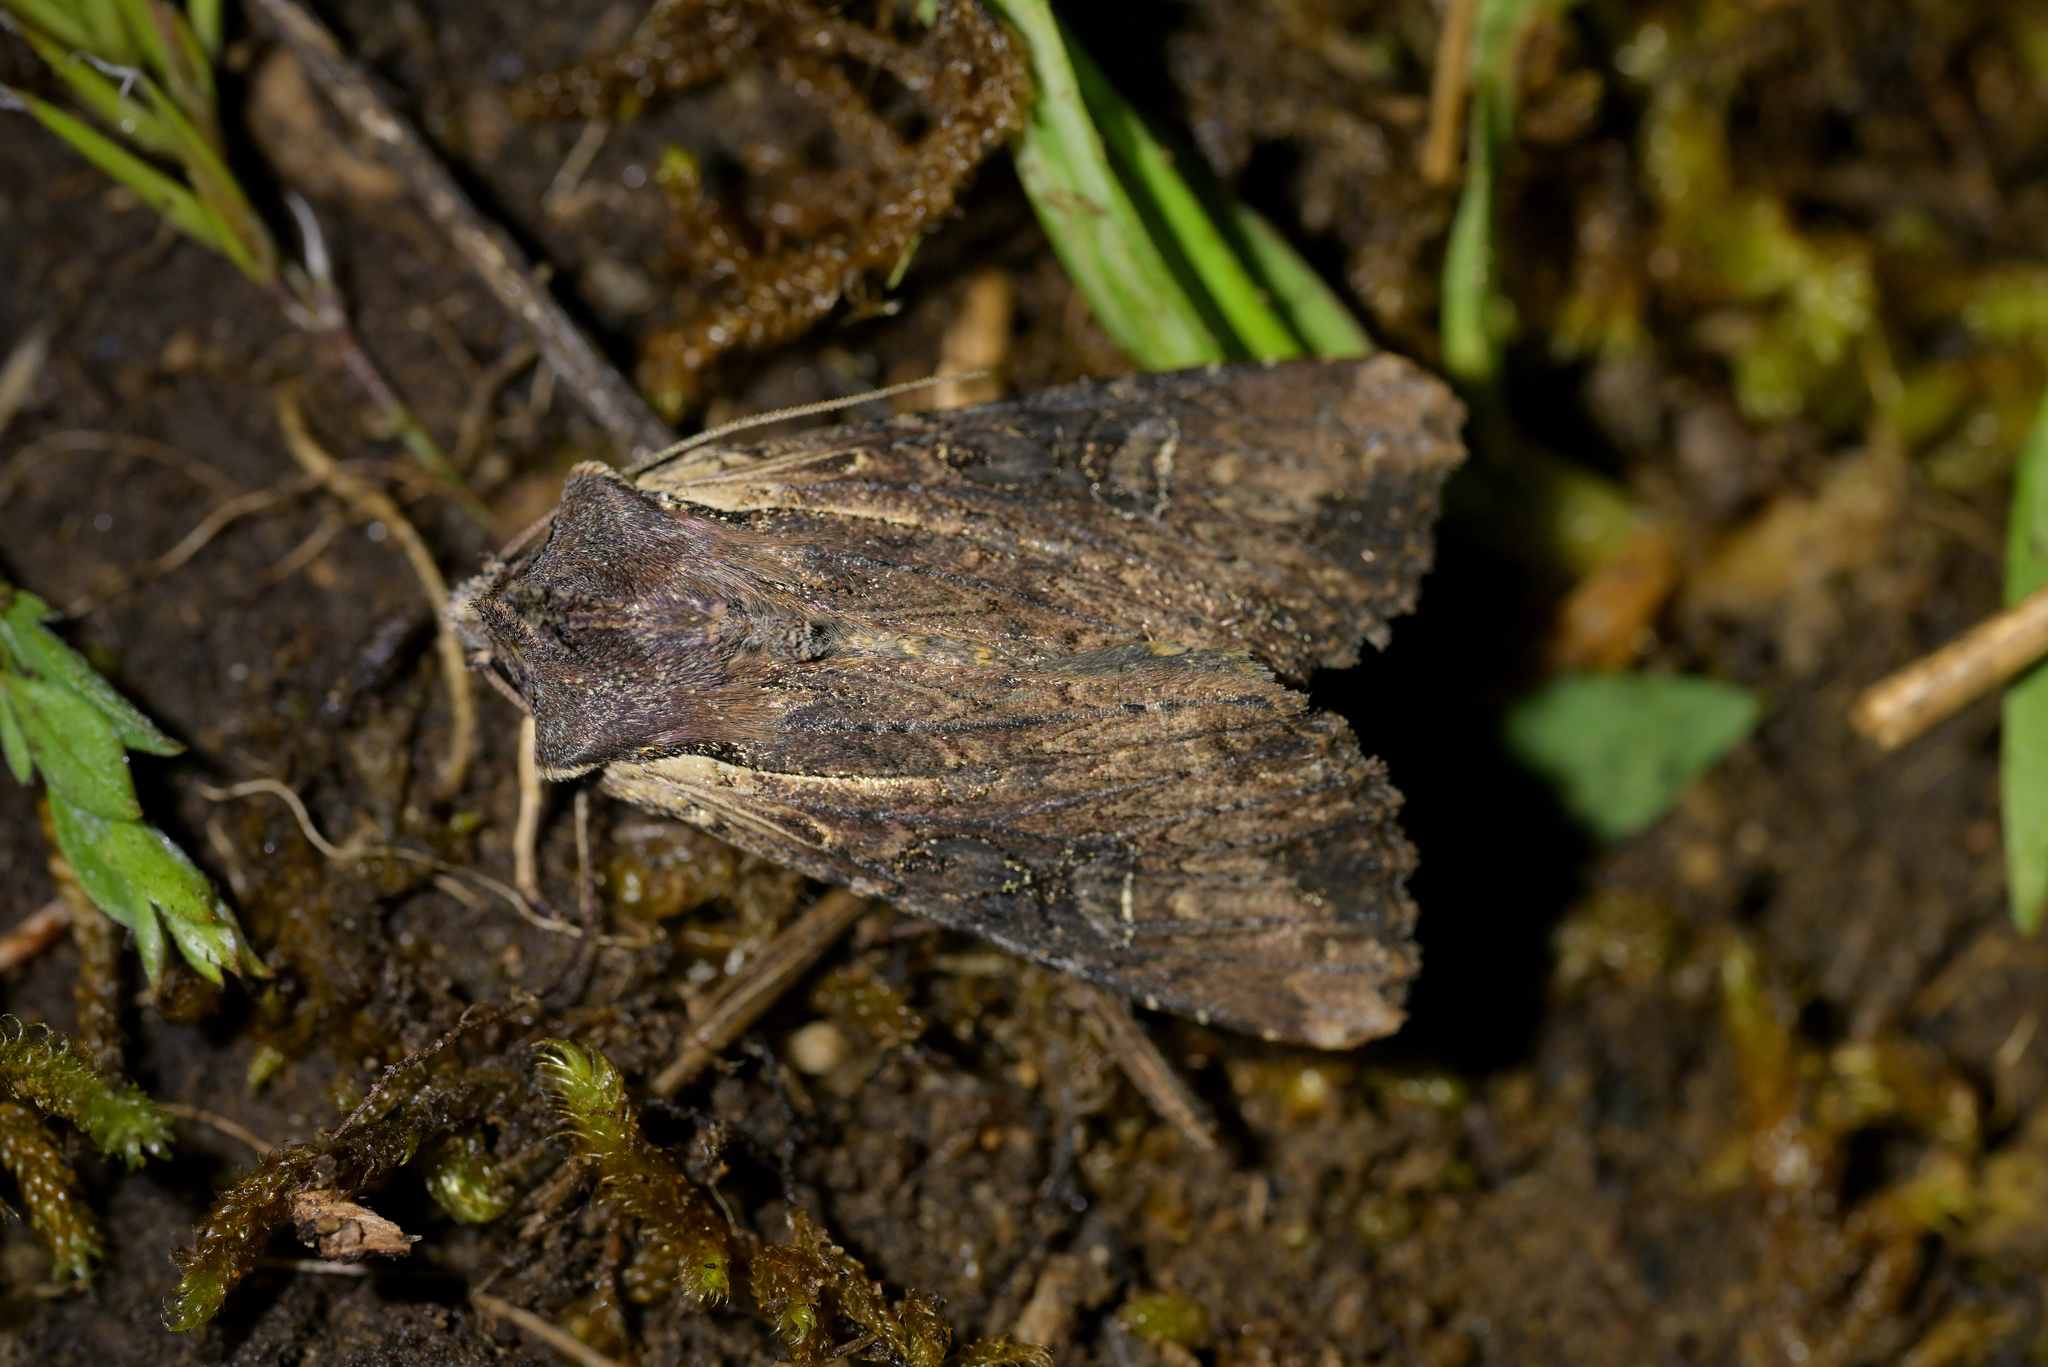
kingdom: Animalia
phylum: Arthropoda
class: Insecta
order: Lepidoptera
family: Noctuidae
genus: Ichneutica
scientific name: Ichneutica omoplaca
